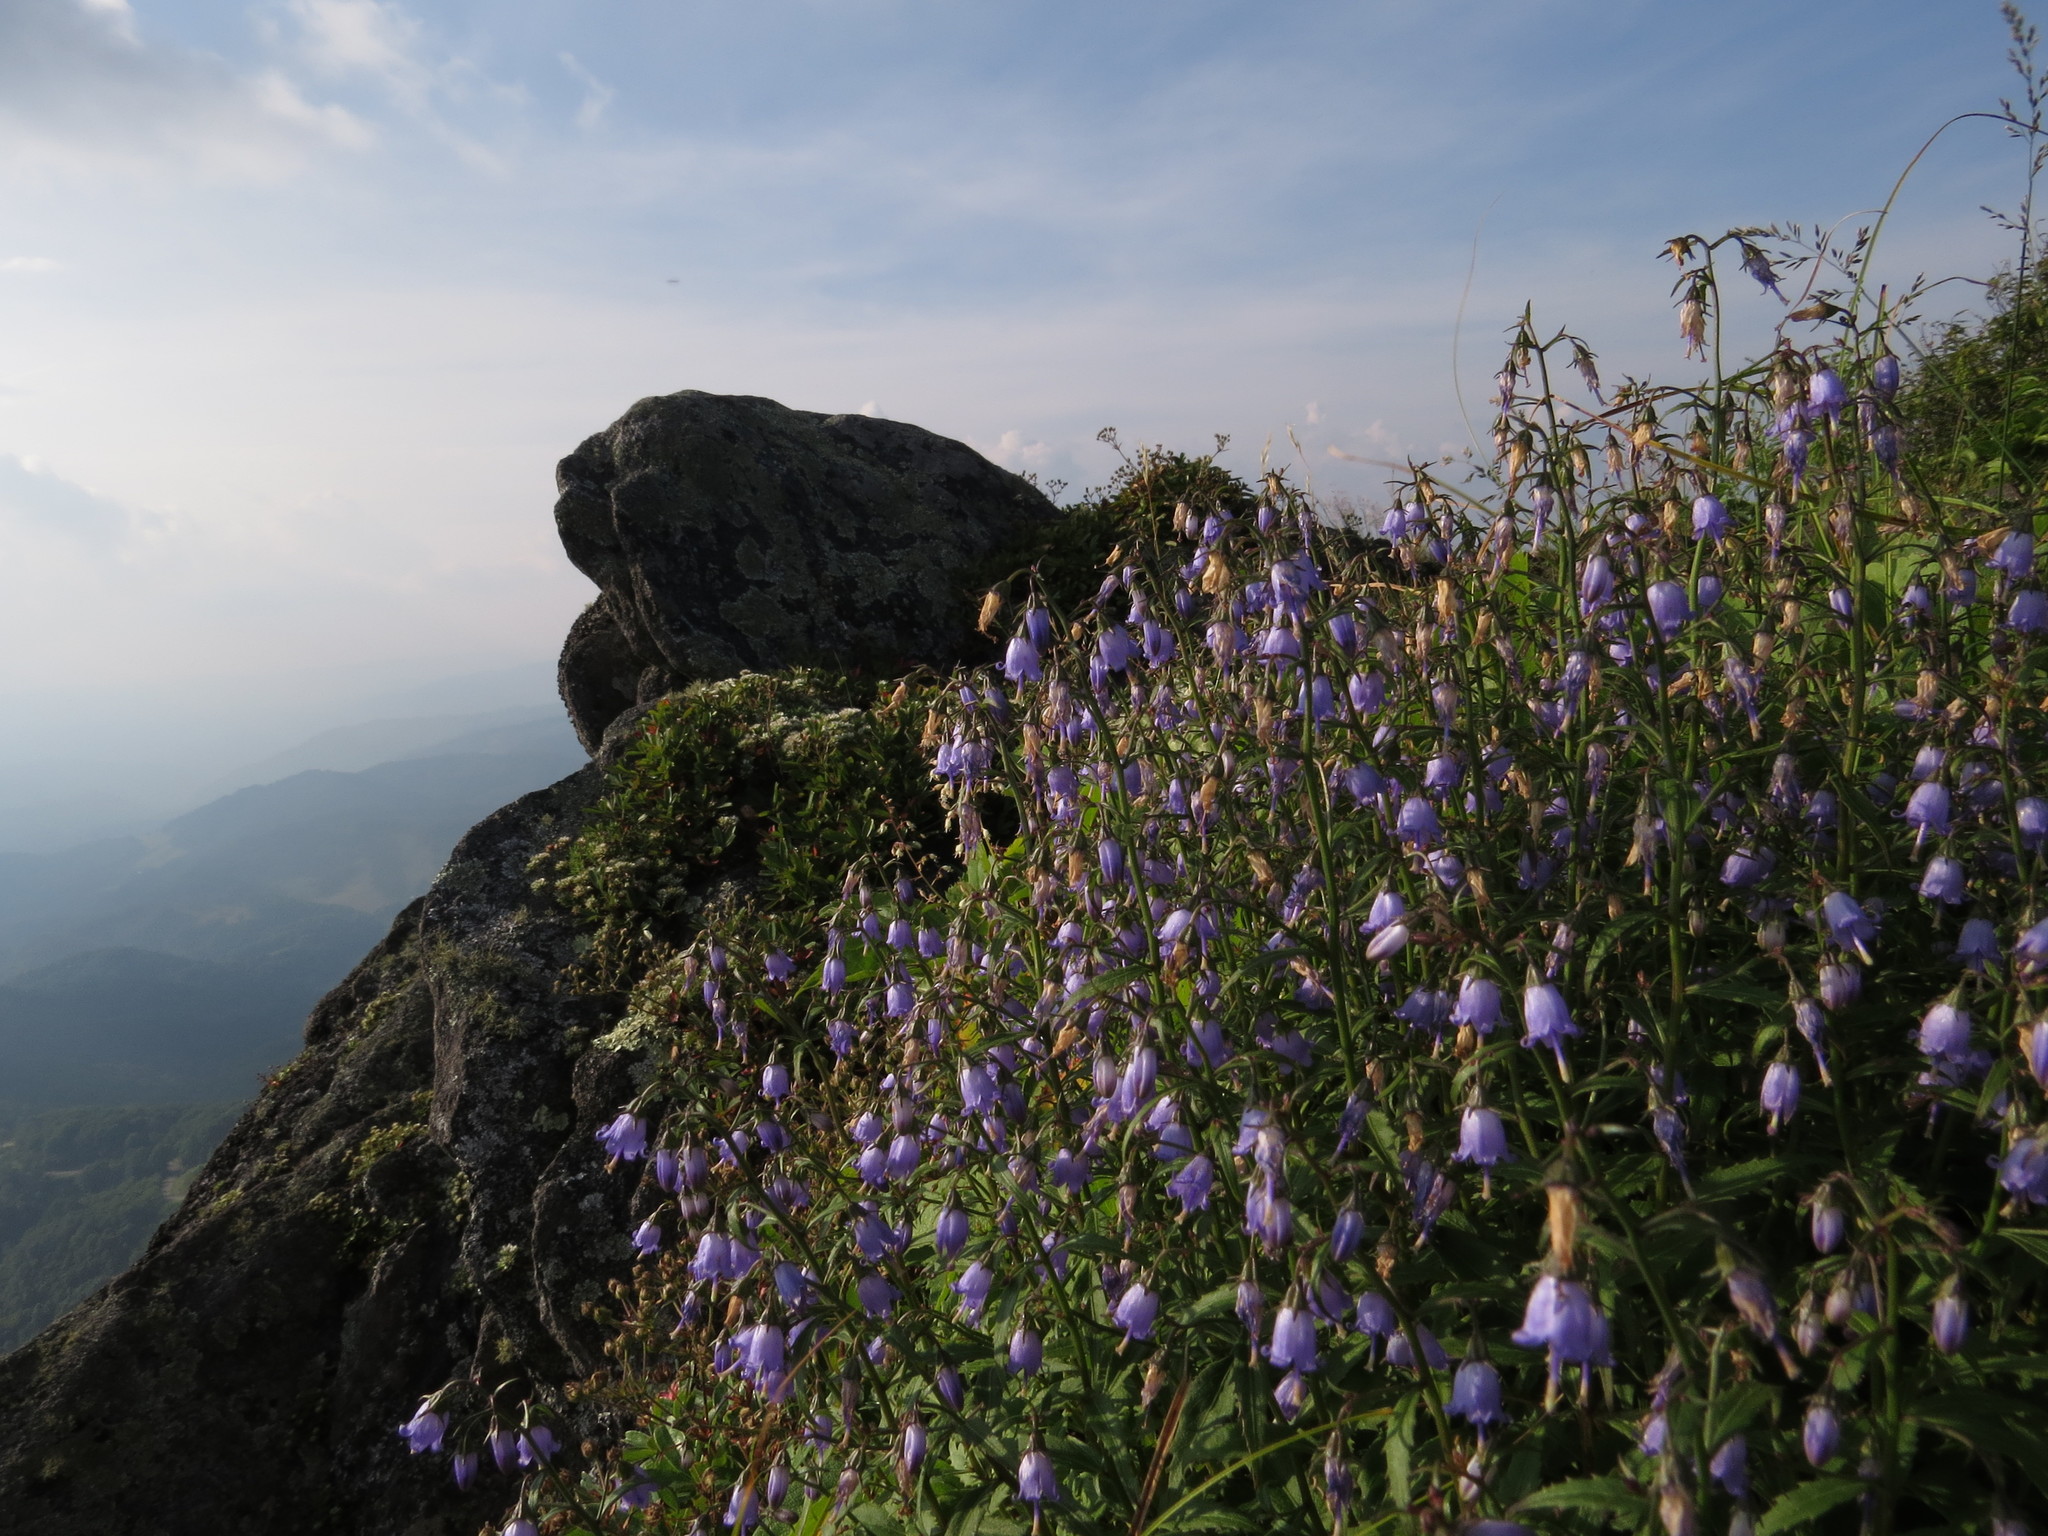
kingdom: Plantae
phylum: Tracheophyta
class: Magnoliopsida
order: Asterales
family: Campanulaceae
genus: Campanula
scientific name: Campanula divaricata
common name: Appalachian bellflower
